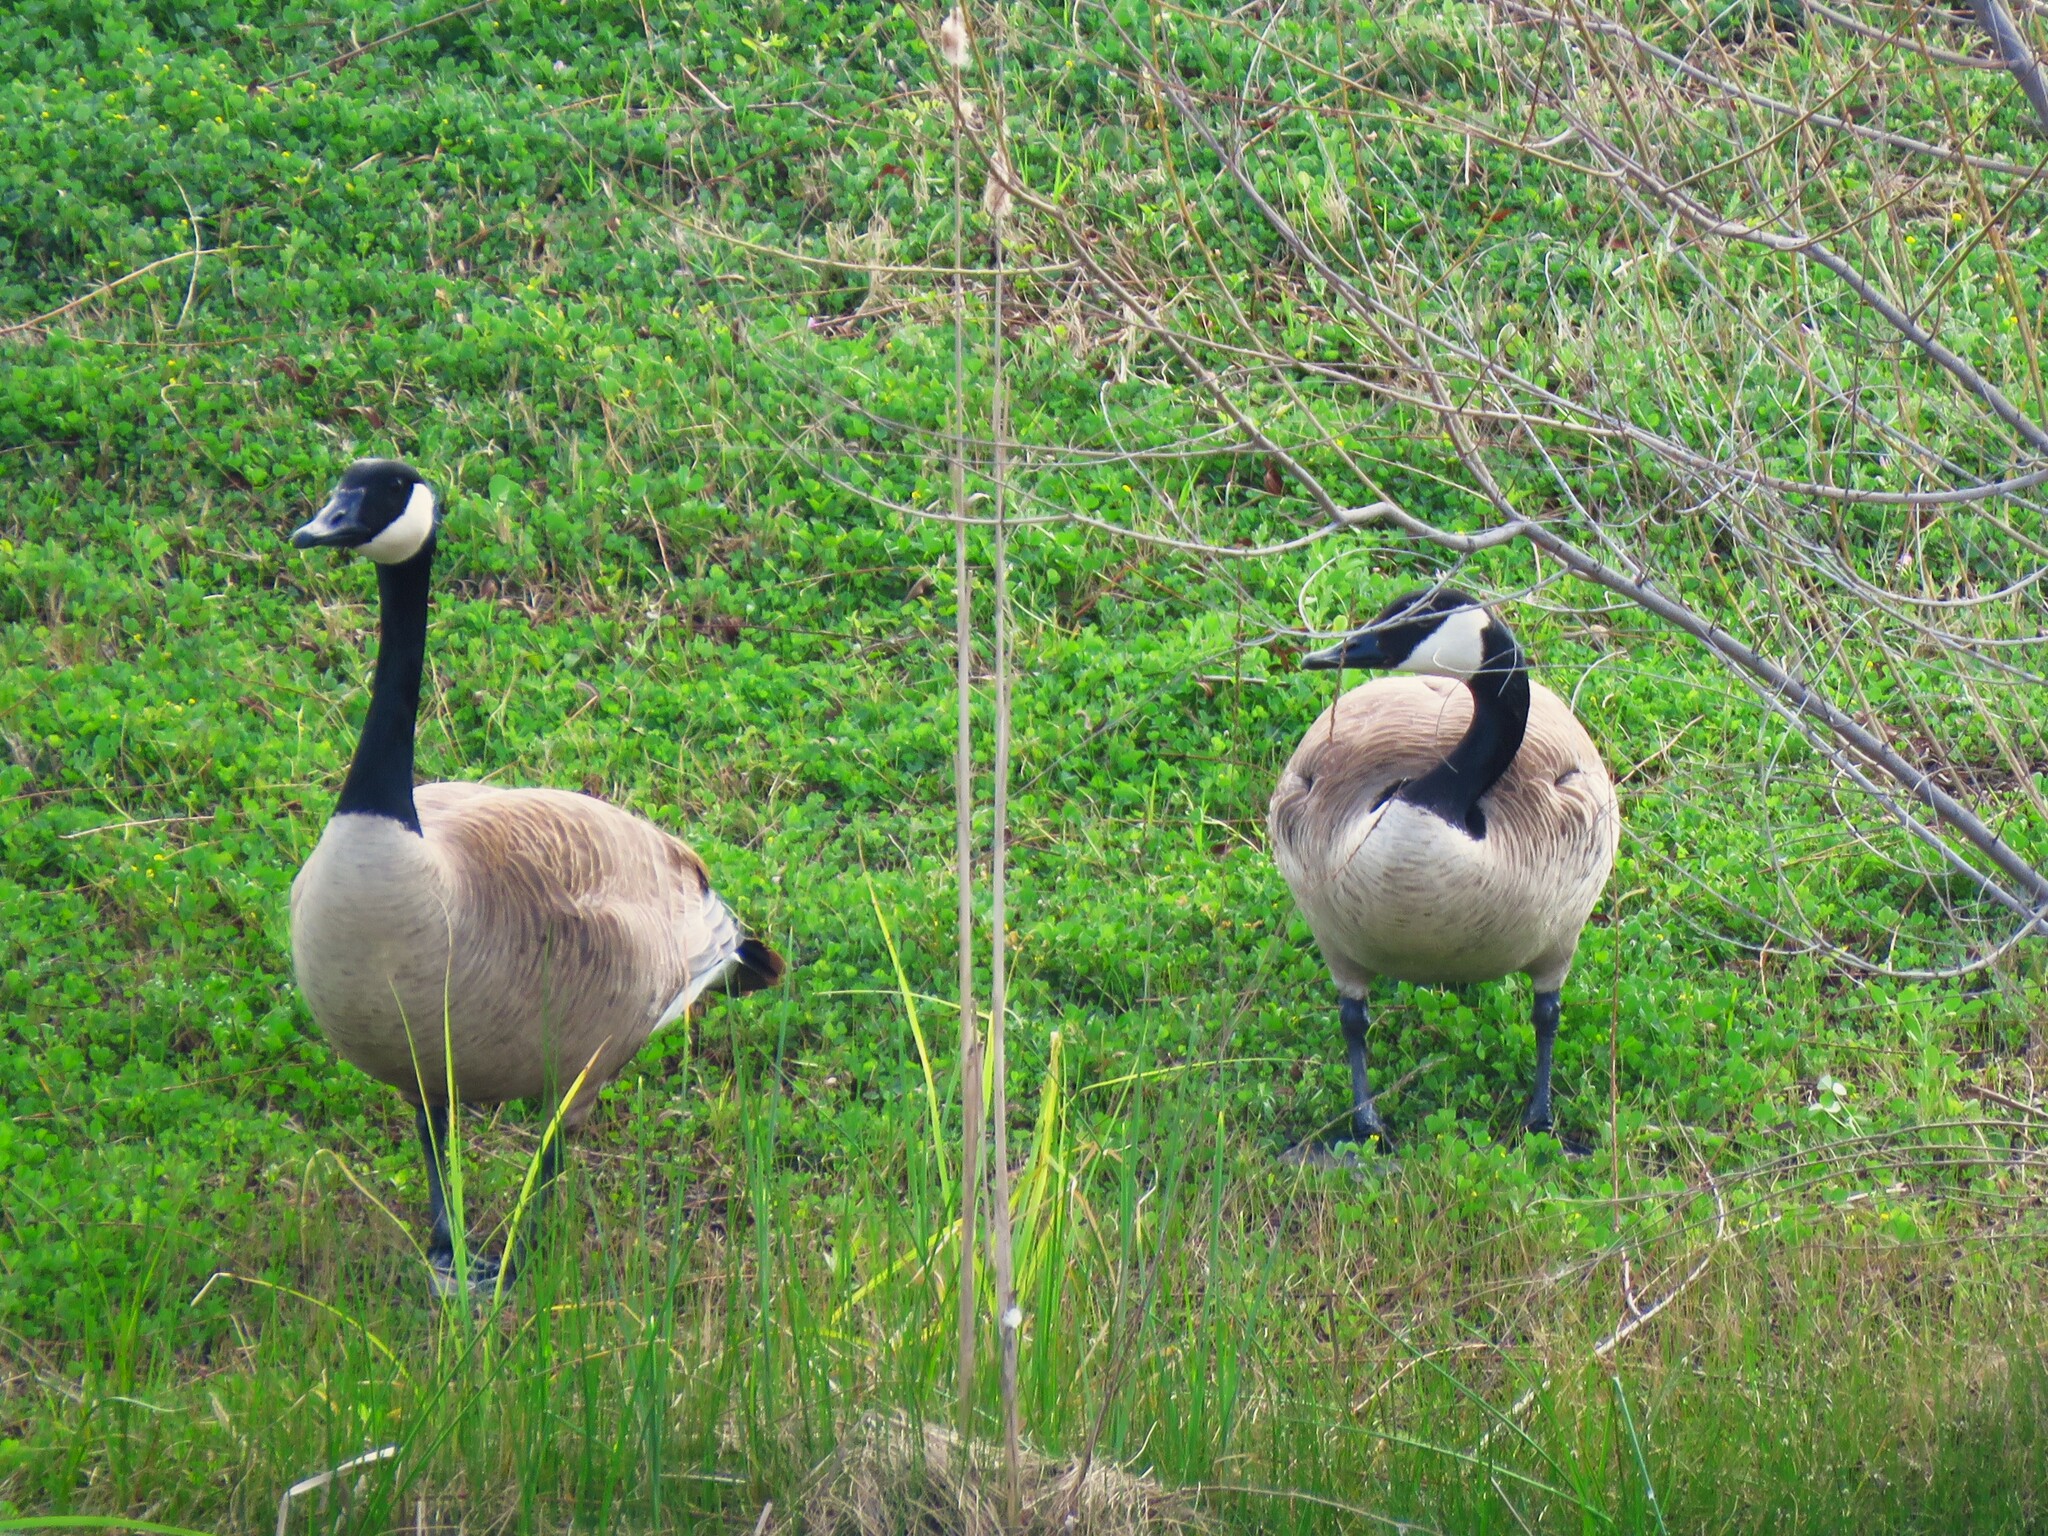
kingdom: Animalia
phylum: Chordata
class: Aves
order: Anseriformes
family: Anatidae
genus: Branta
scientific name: Branta canadensis
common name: Canada goose
